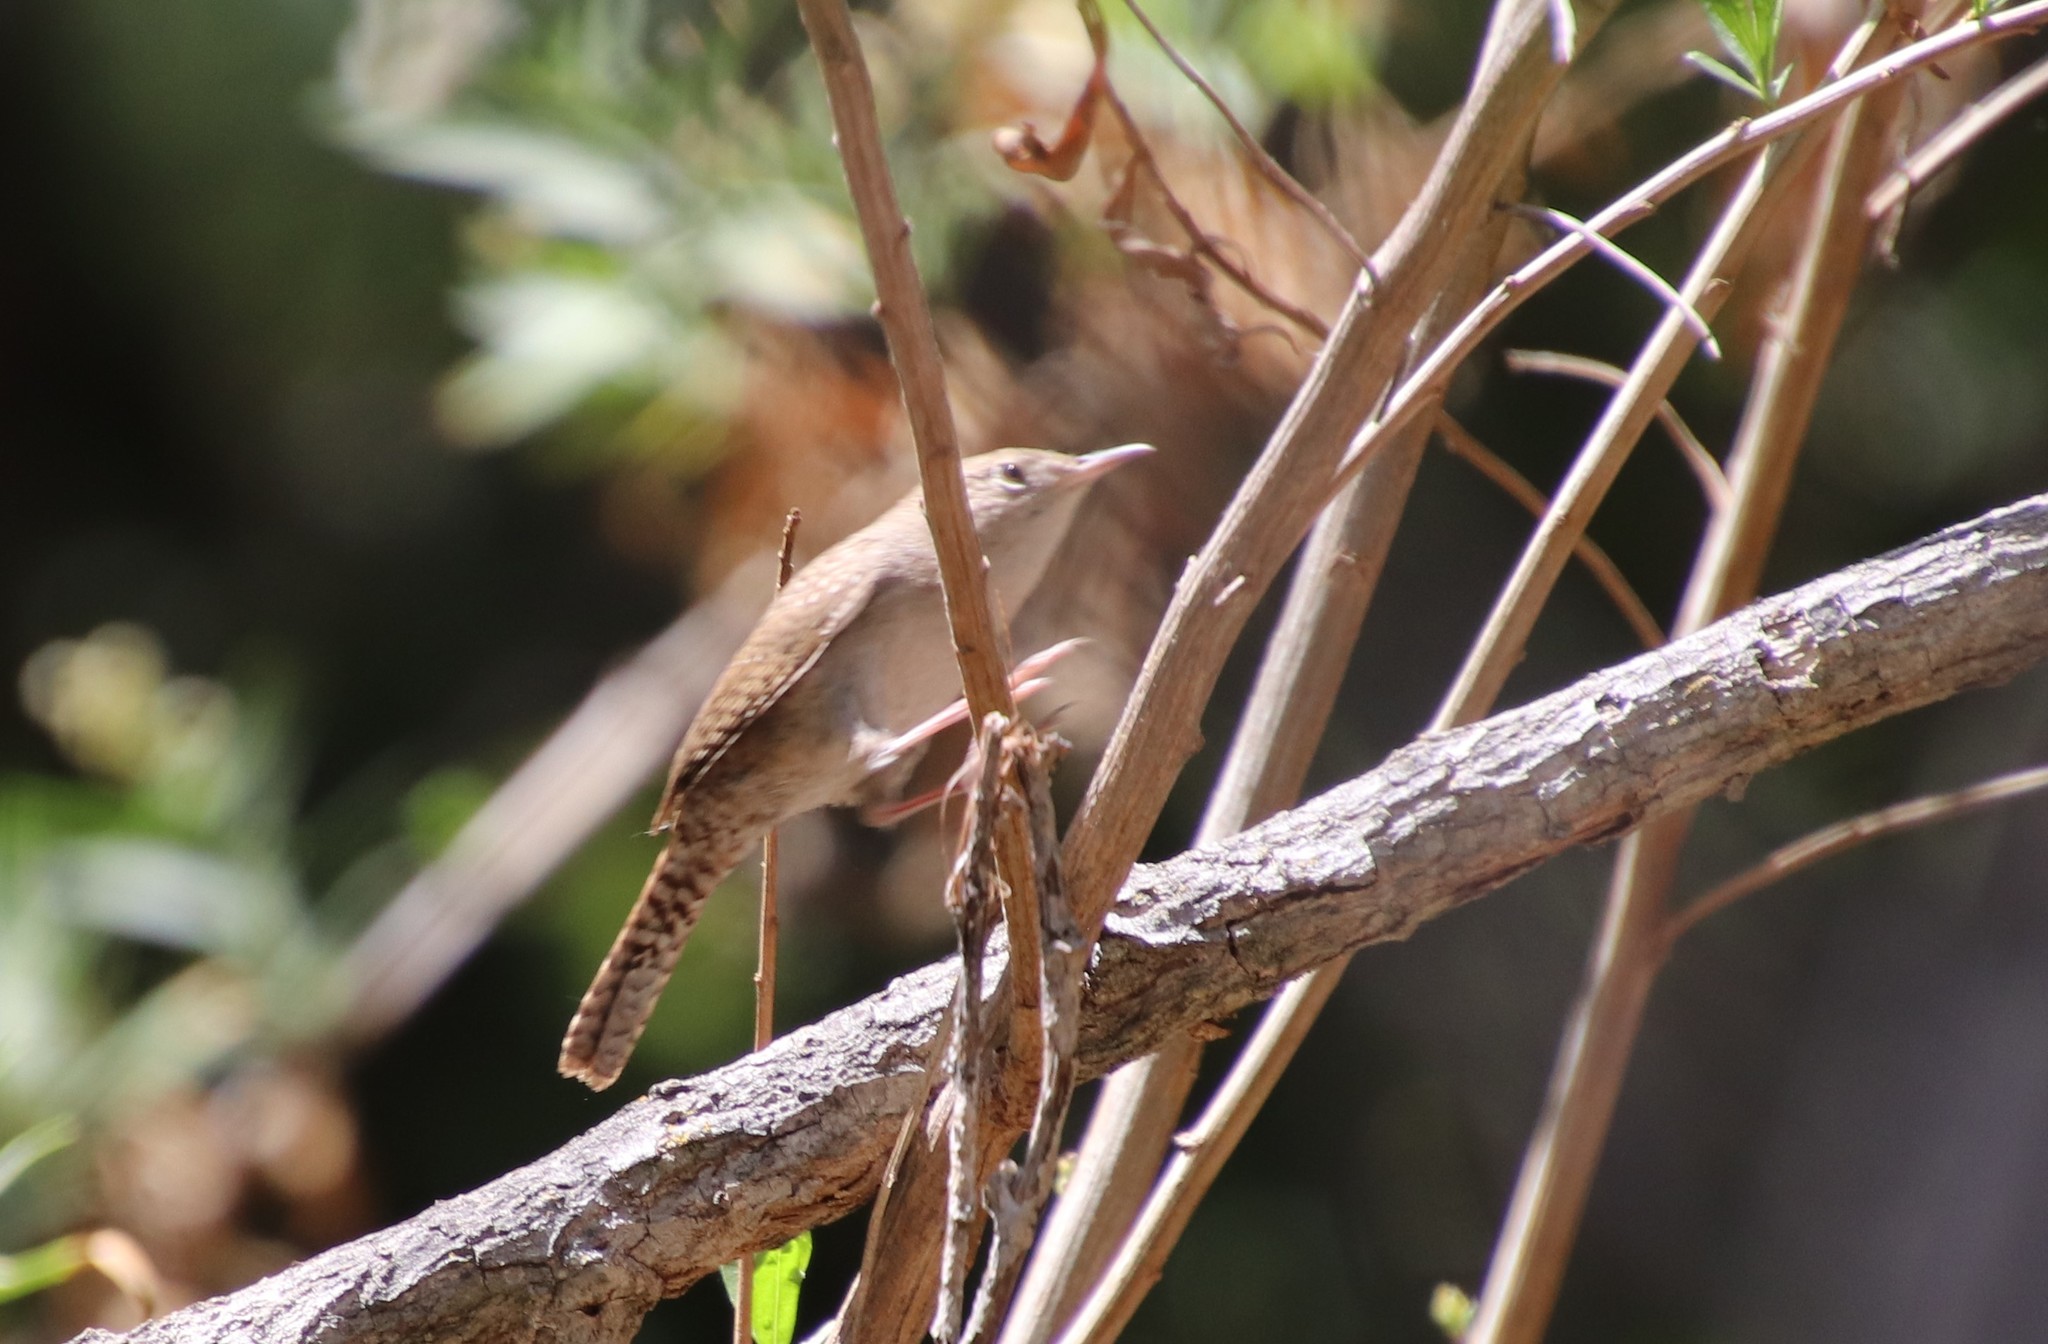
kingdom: Animalia
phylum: Chordata
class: Aves
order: Passeriformes
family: Troglodytidae
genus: Troglodytes
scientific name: Troglodytes aedon
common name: House wren
